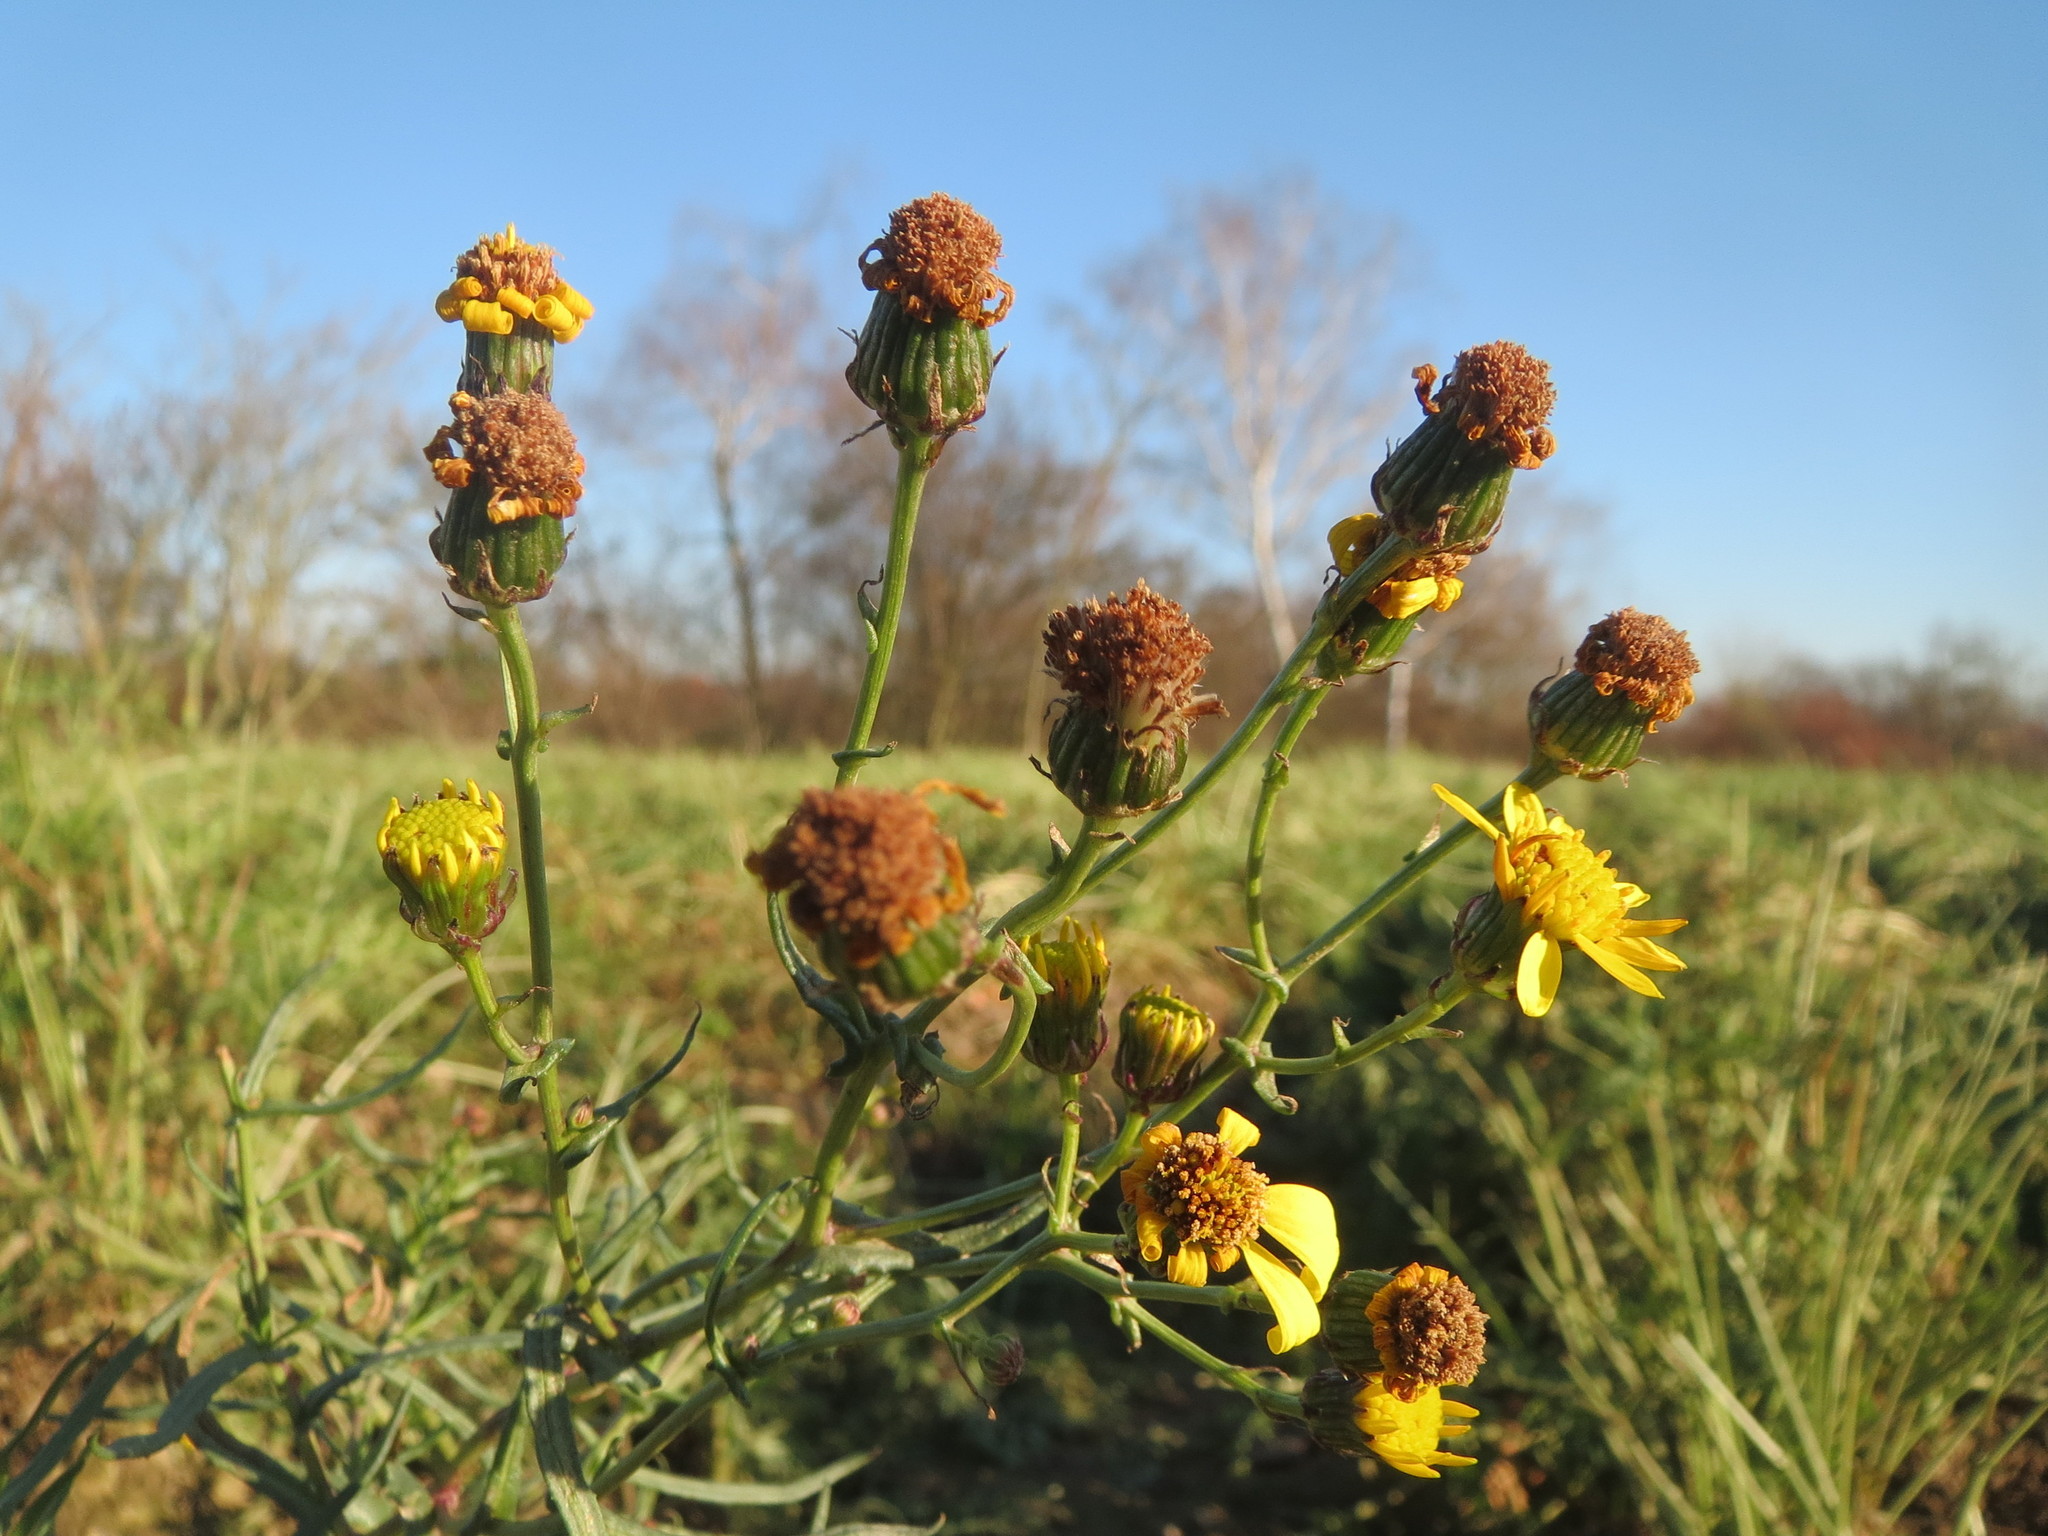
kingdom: Plantae
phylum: Tracheophyta
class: Magnoliopsida
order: Asterales
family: Asteraceae
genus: Senecio
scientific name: Senecio inaequidens
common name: Narrow-leaved ragwort
